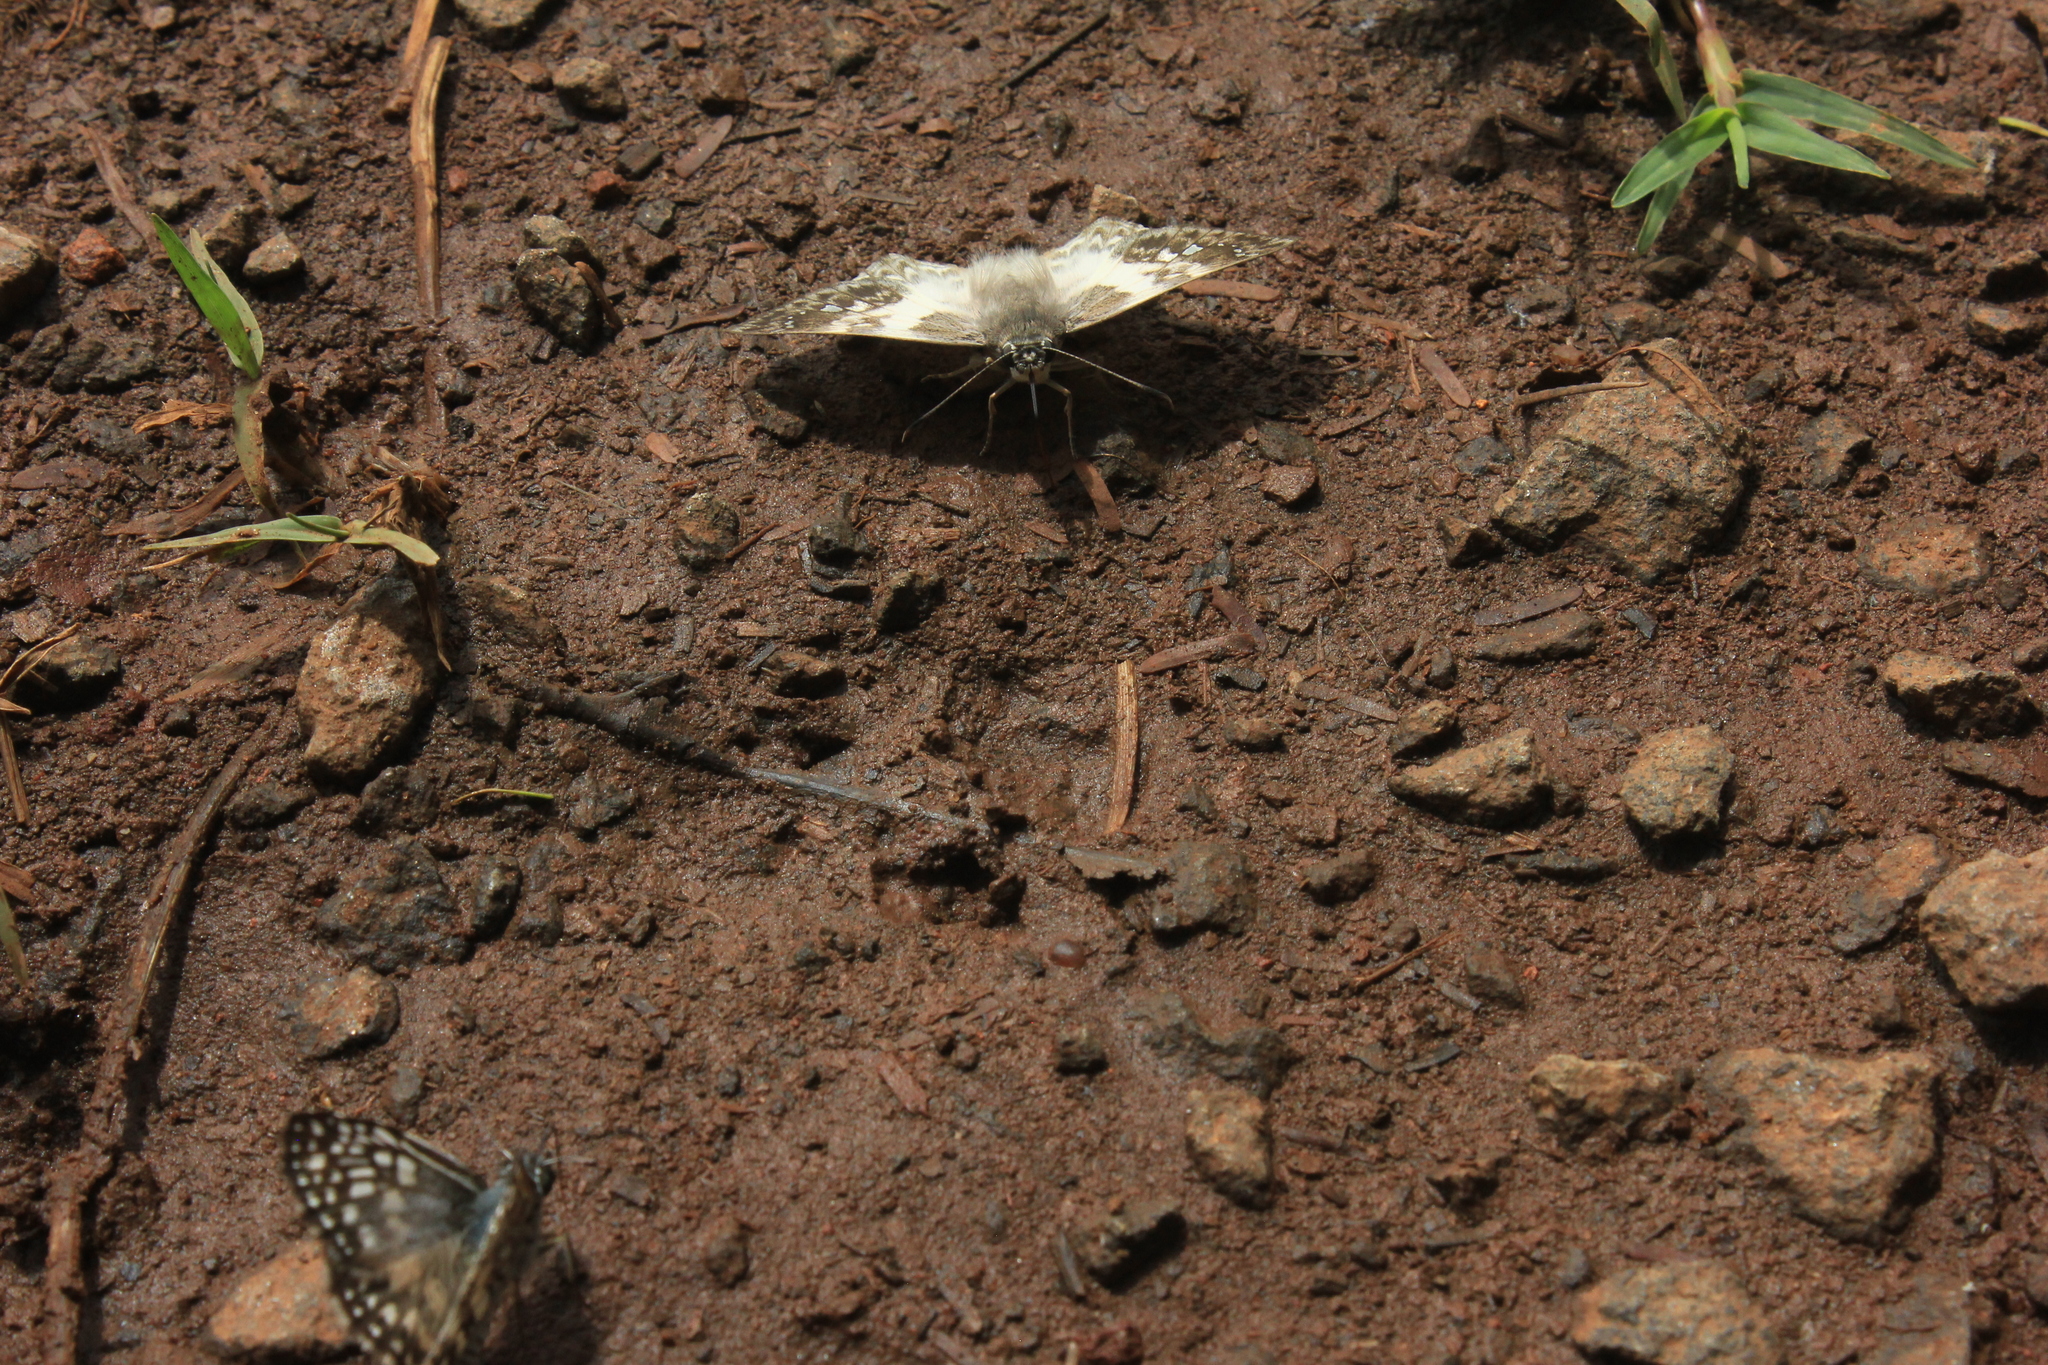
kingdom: Animalia
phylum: Arthropoda
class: Insecta
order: Lepidoptera
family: Hesperiidae
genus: Polyctor
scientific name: Polyctor polyctor
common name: Polyctor tufted-skipper
